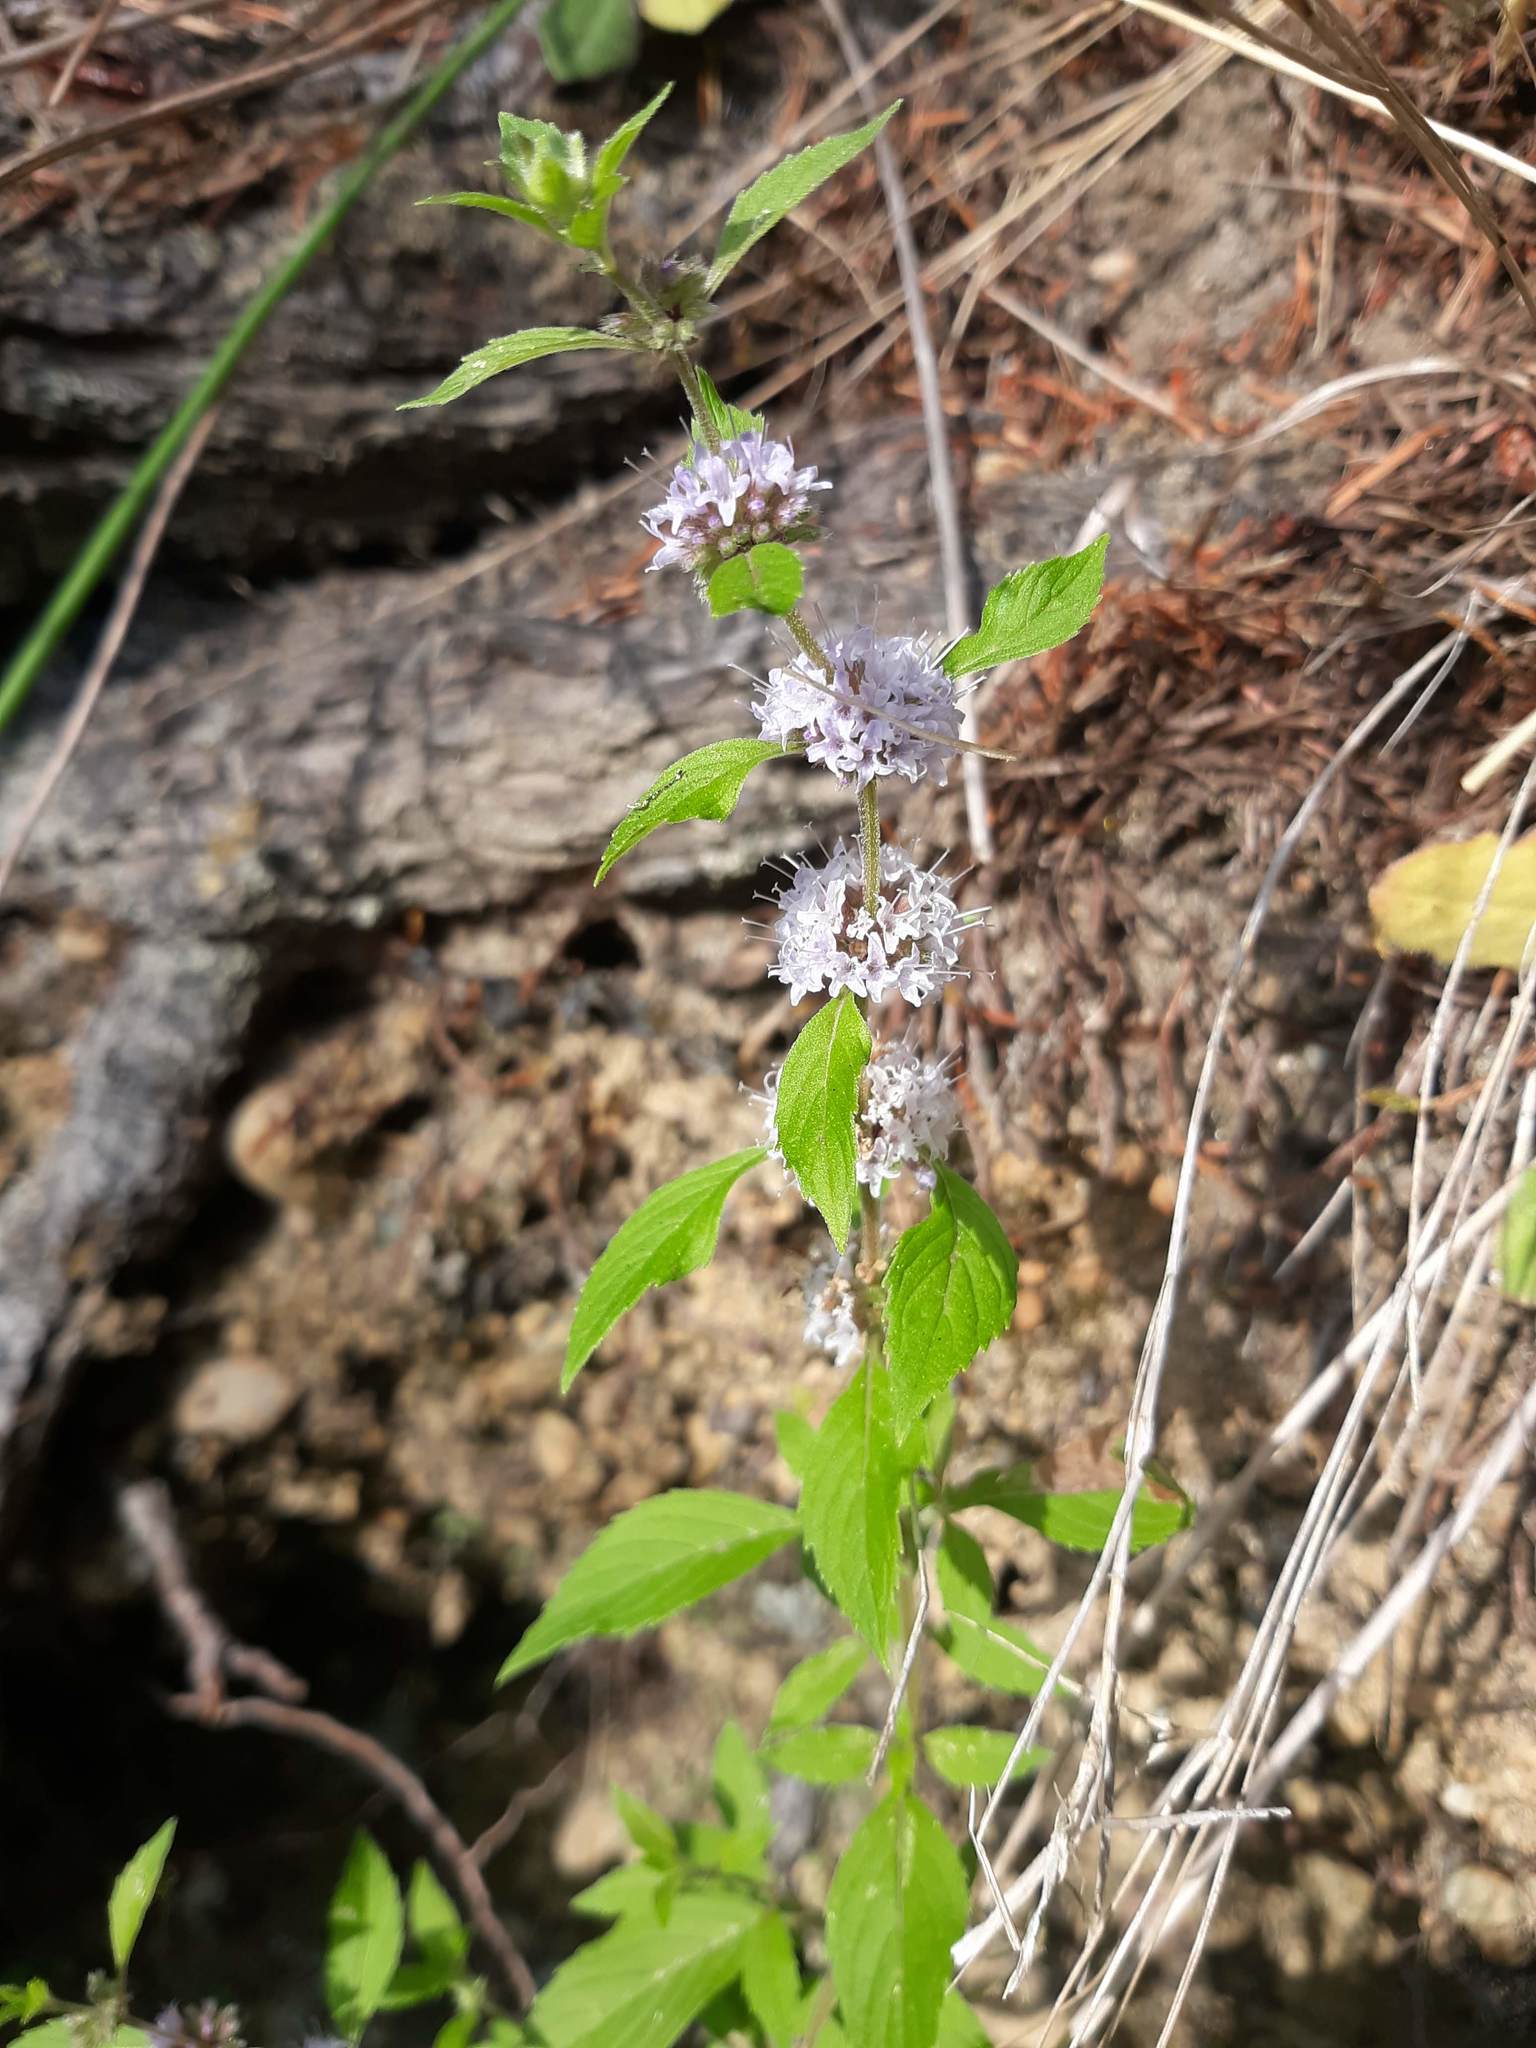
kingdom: Plantae
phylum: Tracheophyta
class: Magnoliopsida
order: Lamiales
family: Lamiaceae
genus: Mentha
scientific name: Mentha canadensis
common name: American corn mint
